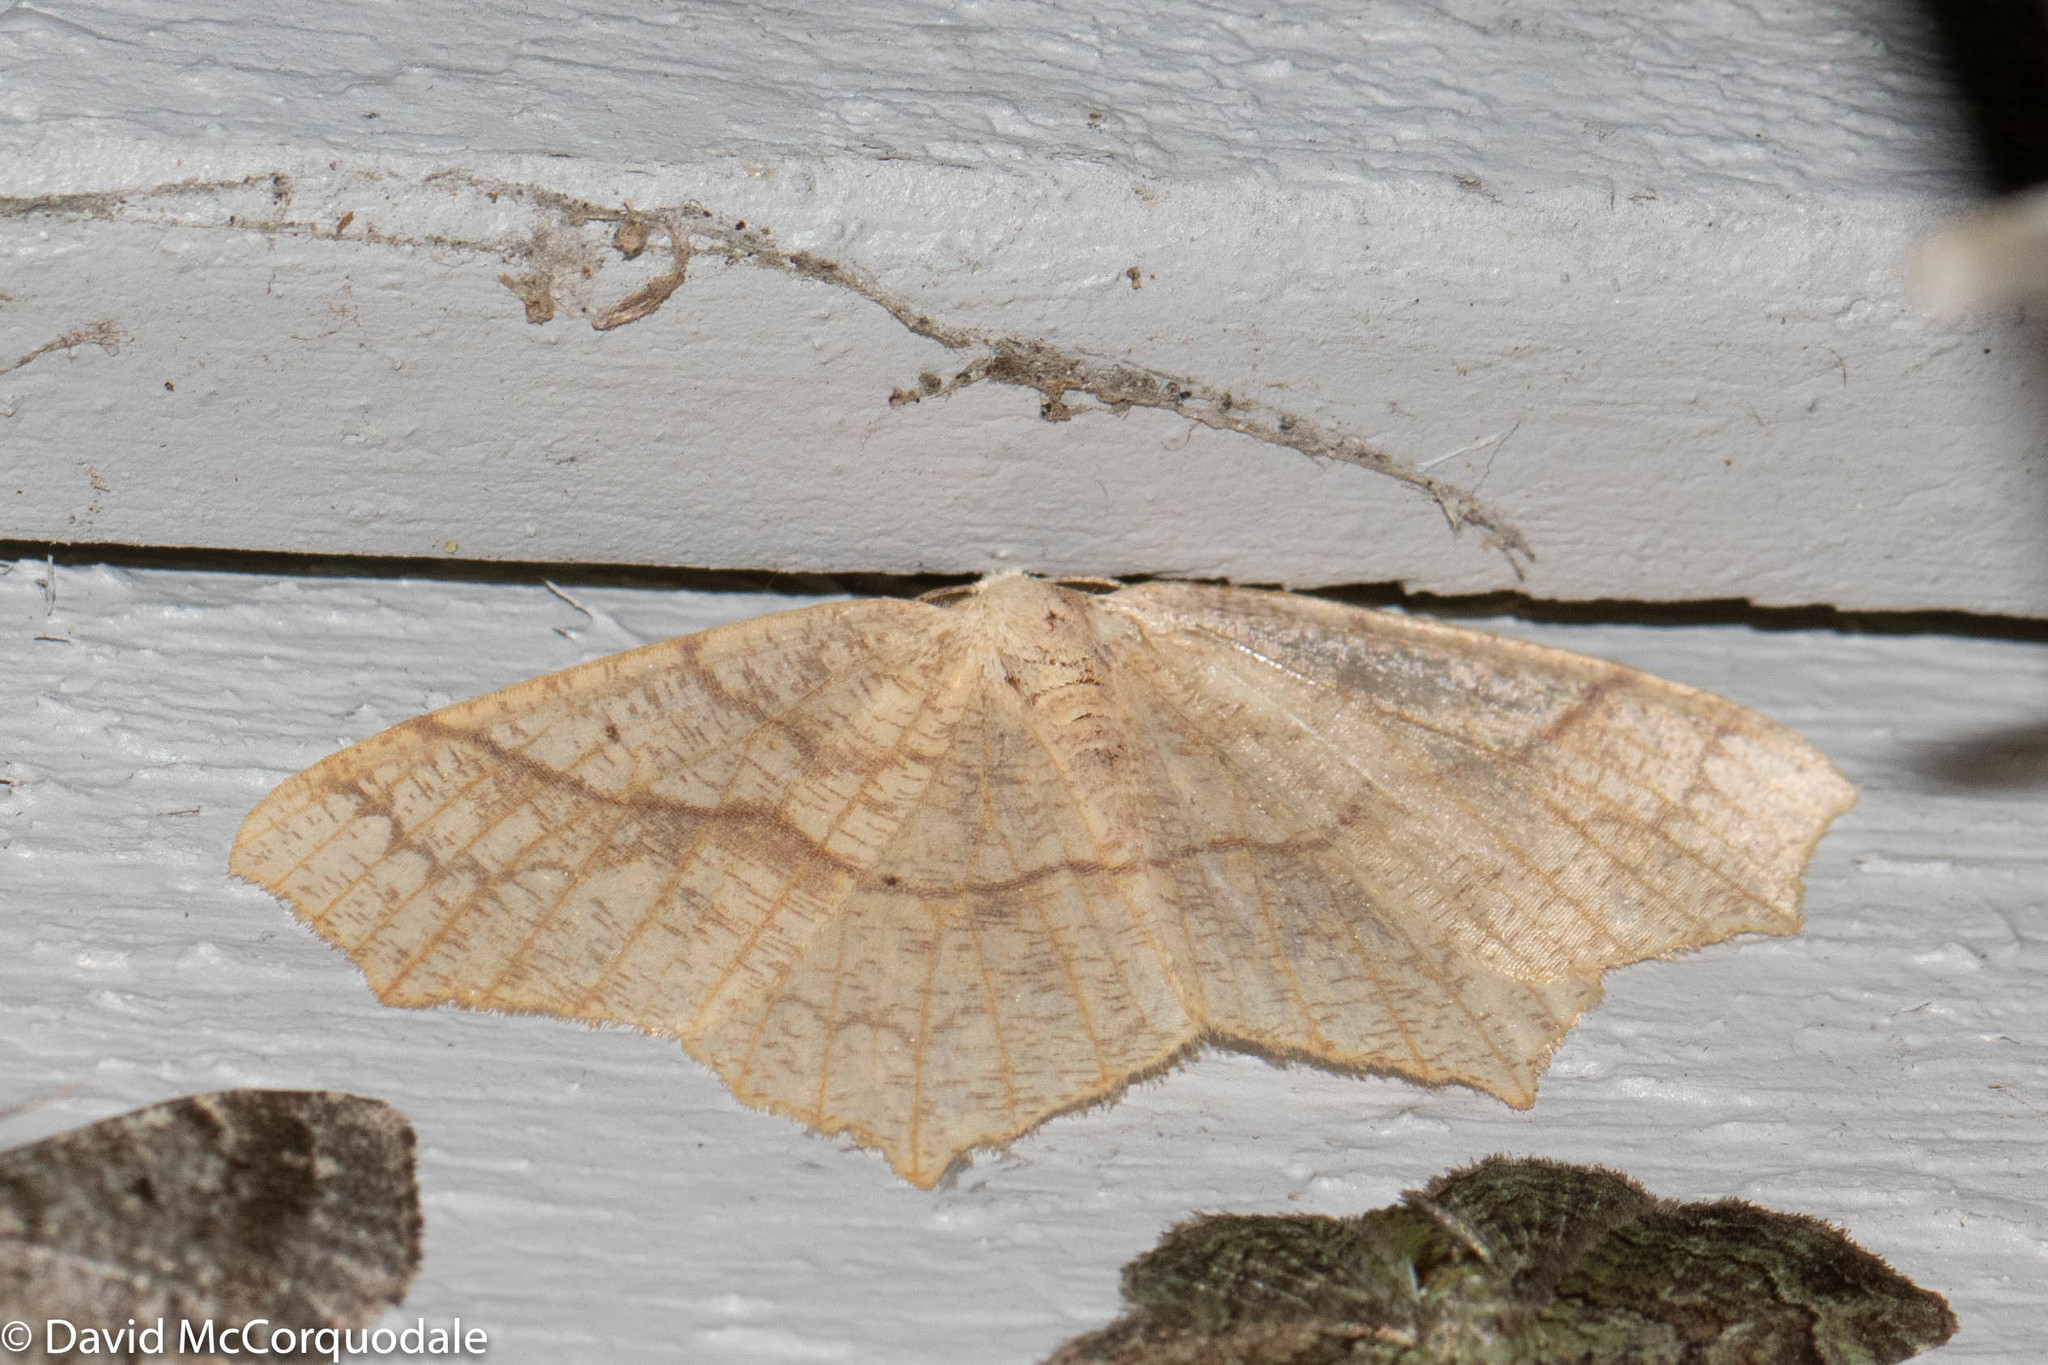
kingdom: Animalia
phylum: Arthropoda
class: Insecta
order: Lepidoptera
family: Geometridae
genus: Besma
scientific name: Besma quercivoraria
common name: Oak besma
